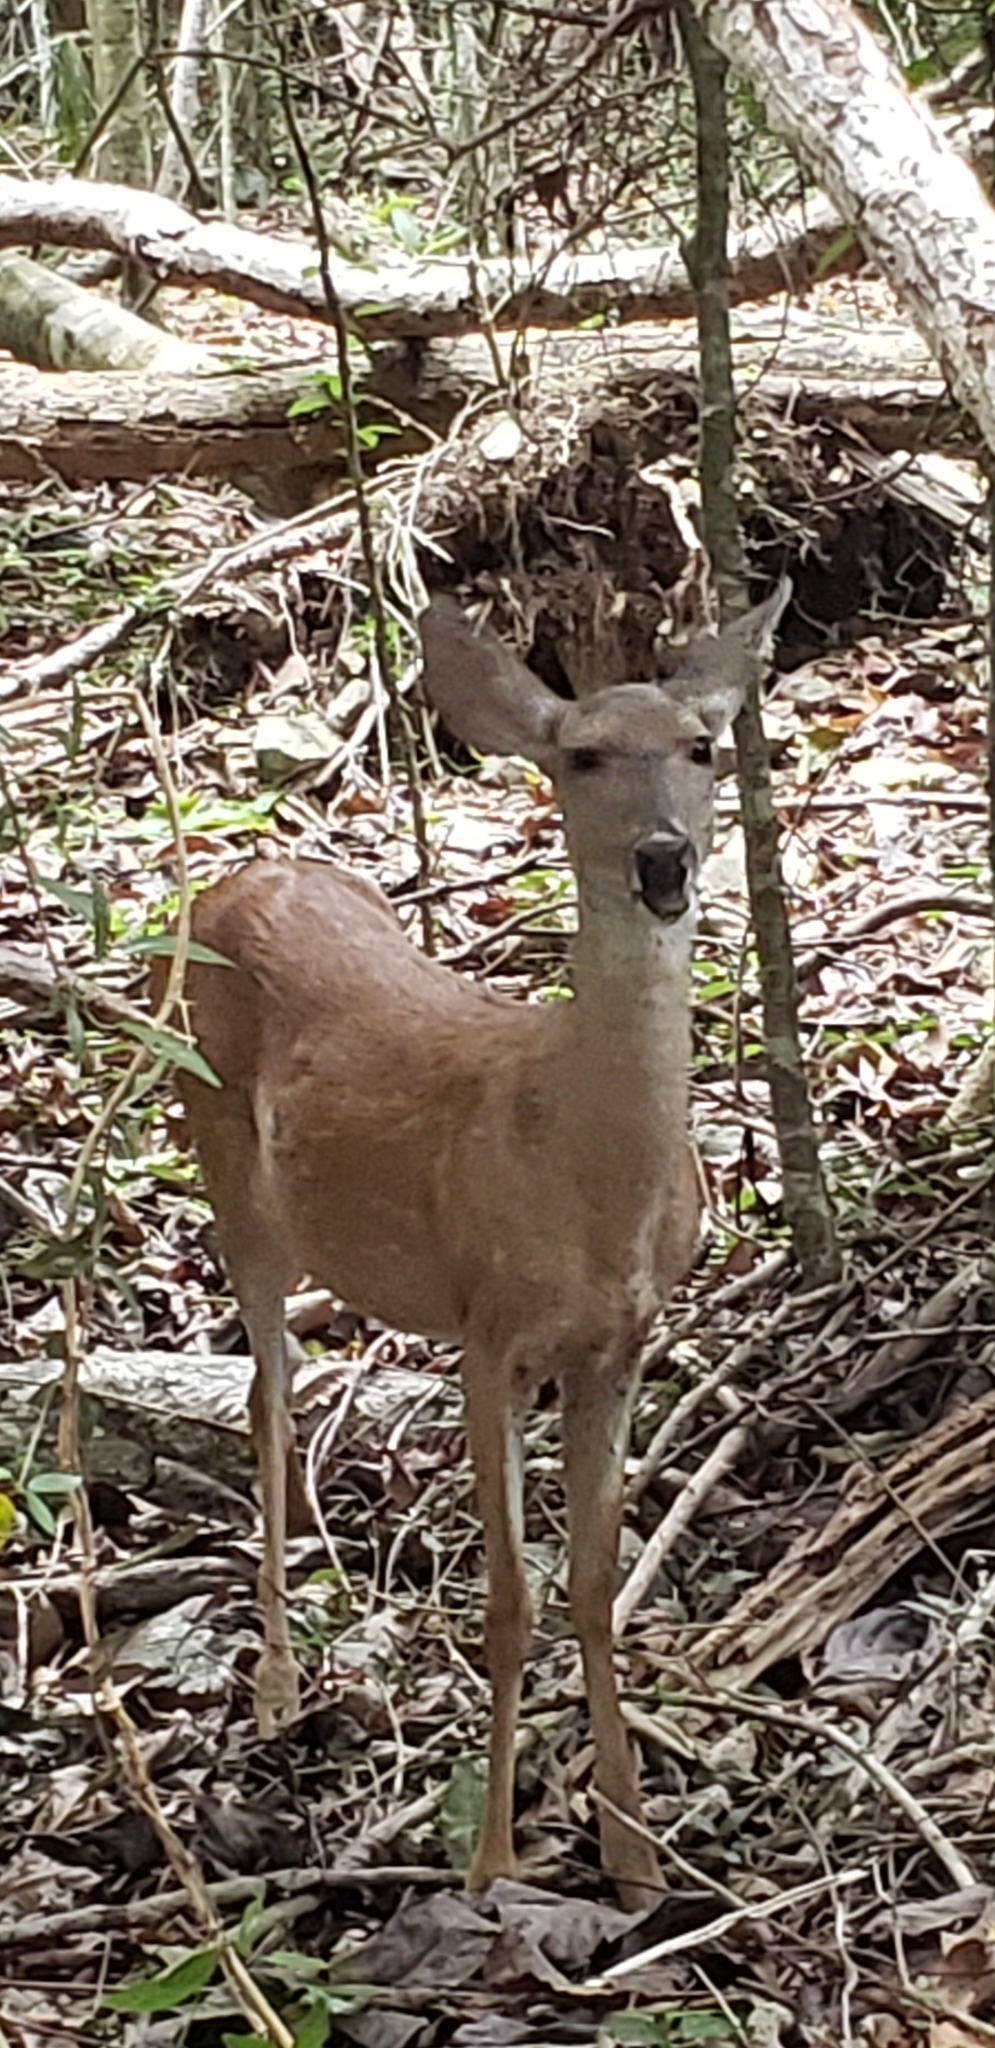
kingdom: Animalia
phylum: Chordata
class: Mammalia
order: Artiodactyla
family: Cervidae
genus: Odocoileus
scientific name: Odocoileus virginianus
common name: White-tailed deer
